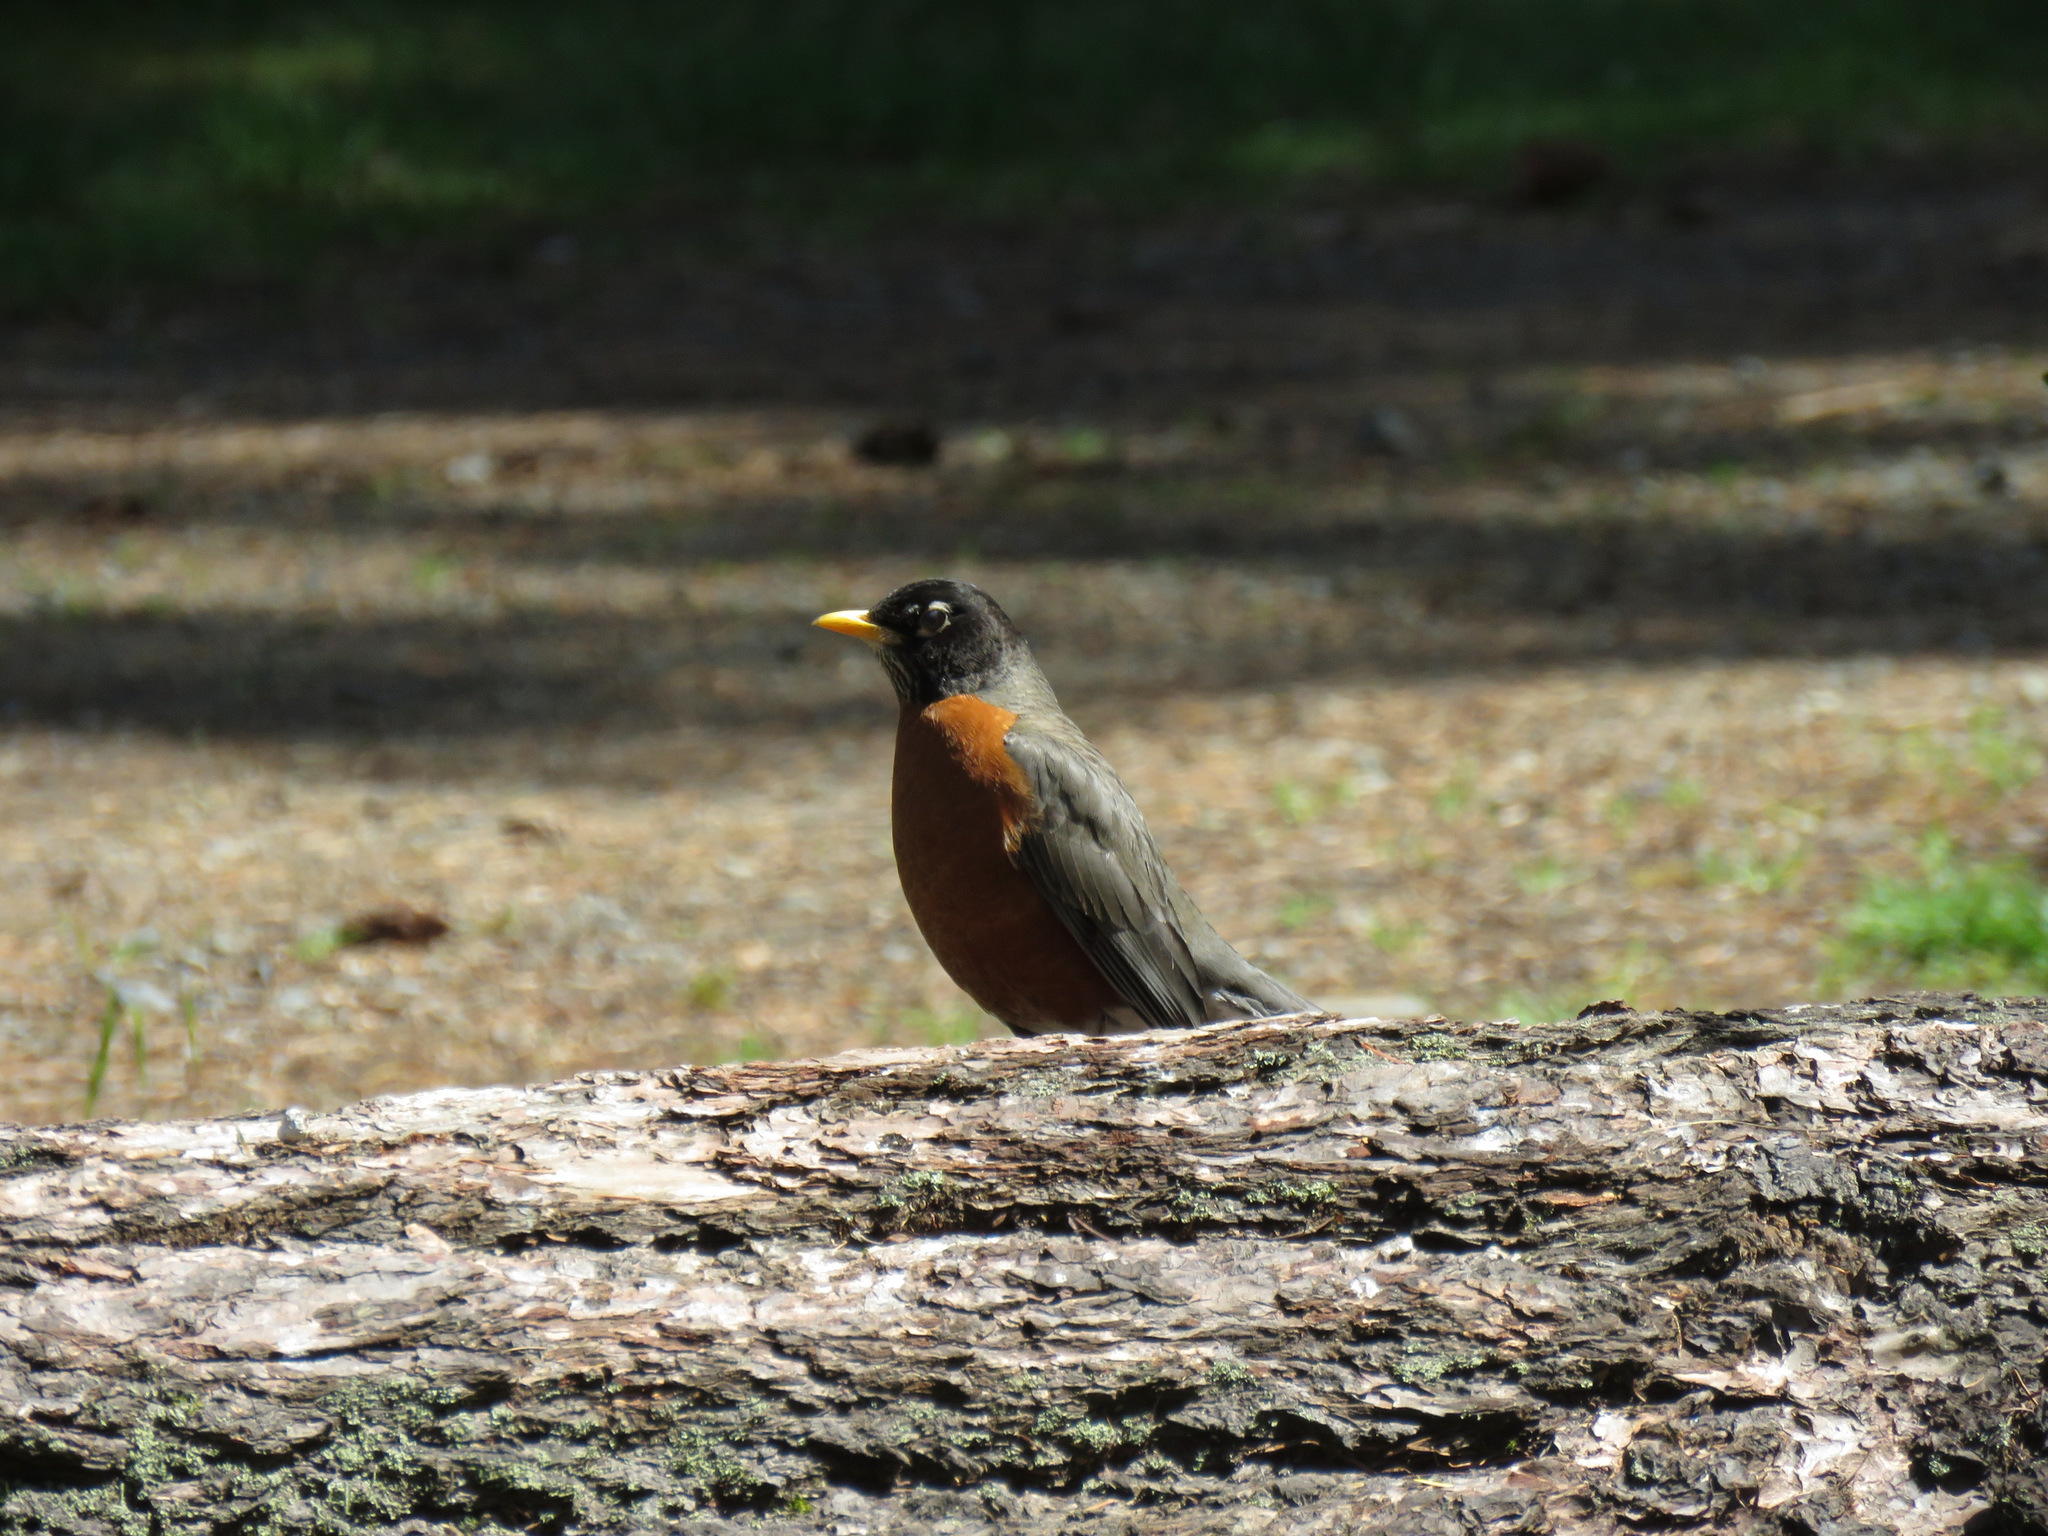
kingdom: Animalia
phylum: Chordata
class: Aves
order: Passeriformes
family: Turdidae
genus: Turdus
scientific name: Turdus migratorius
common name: American robin
